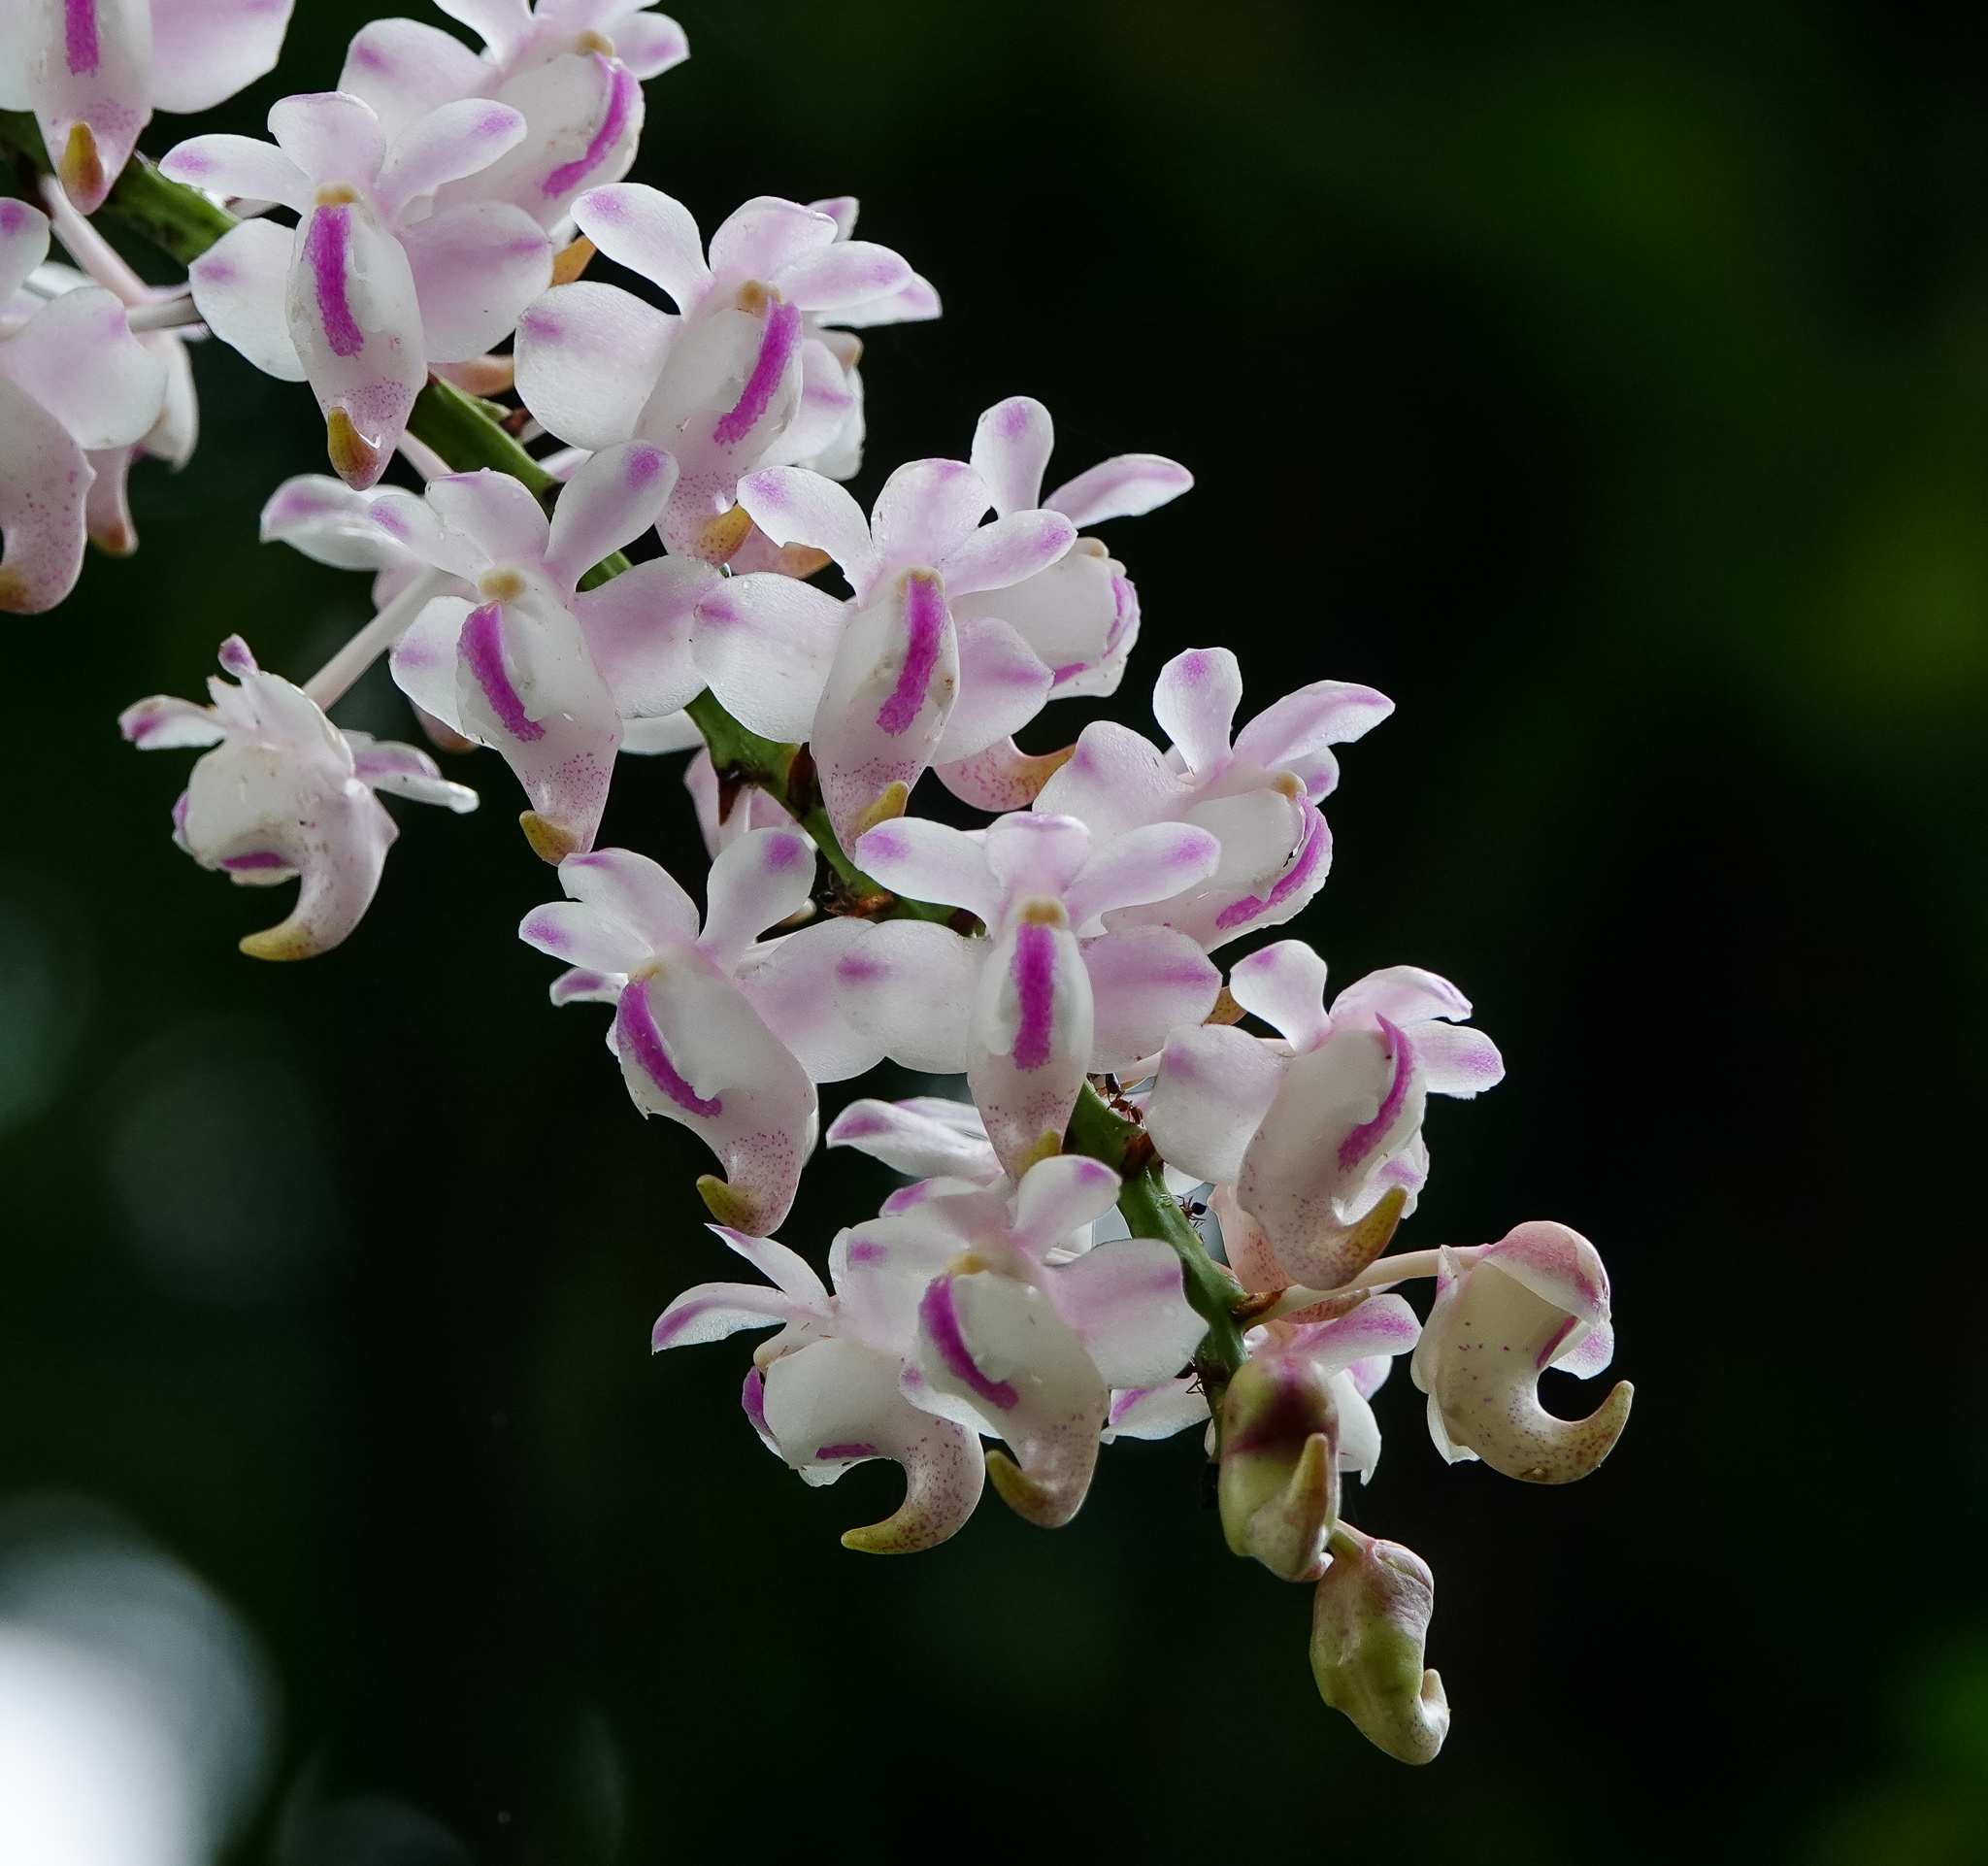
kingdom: Plantae
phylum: Tracheophyta
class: Liliopsida
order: Asparagales
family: Orchidaceae
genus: Aerides
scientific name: Aerides odorata
